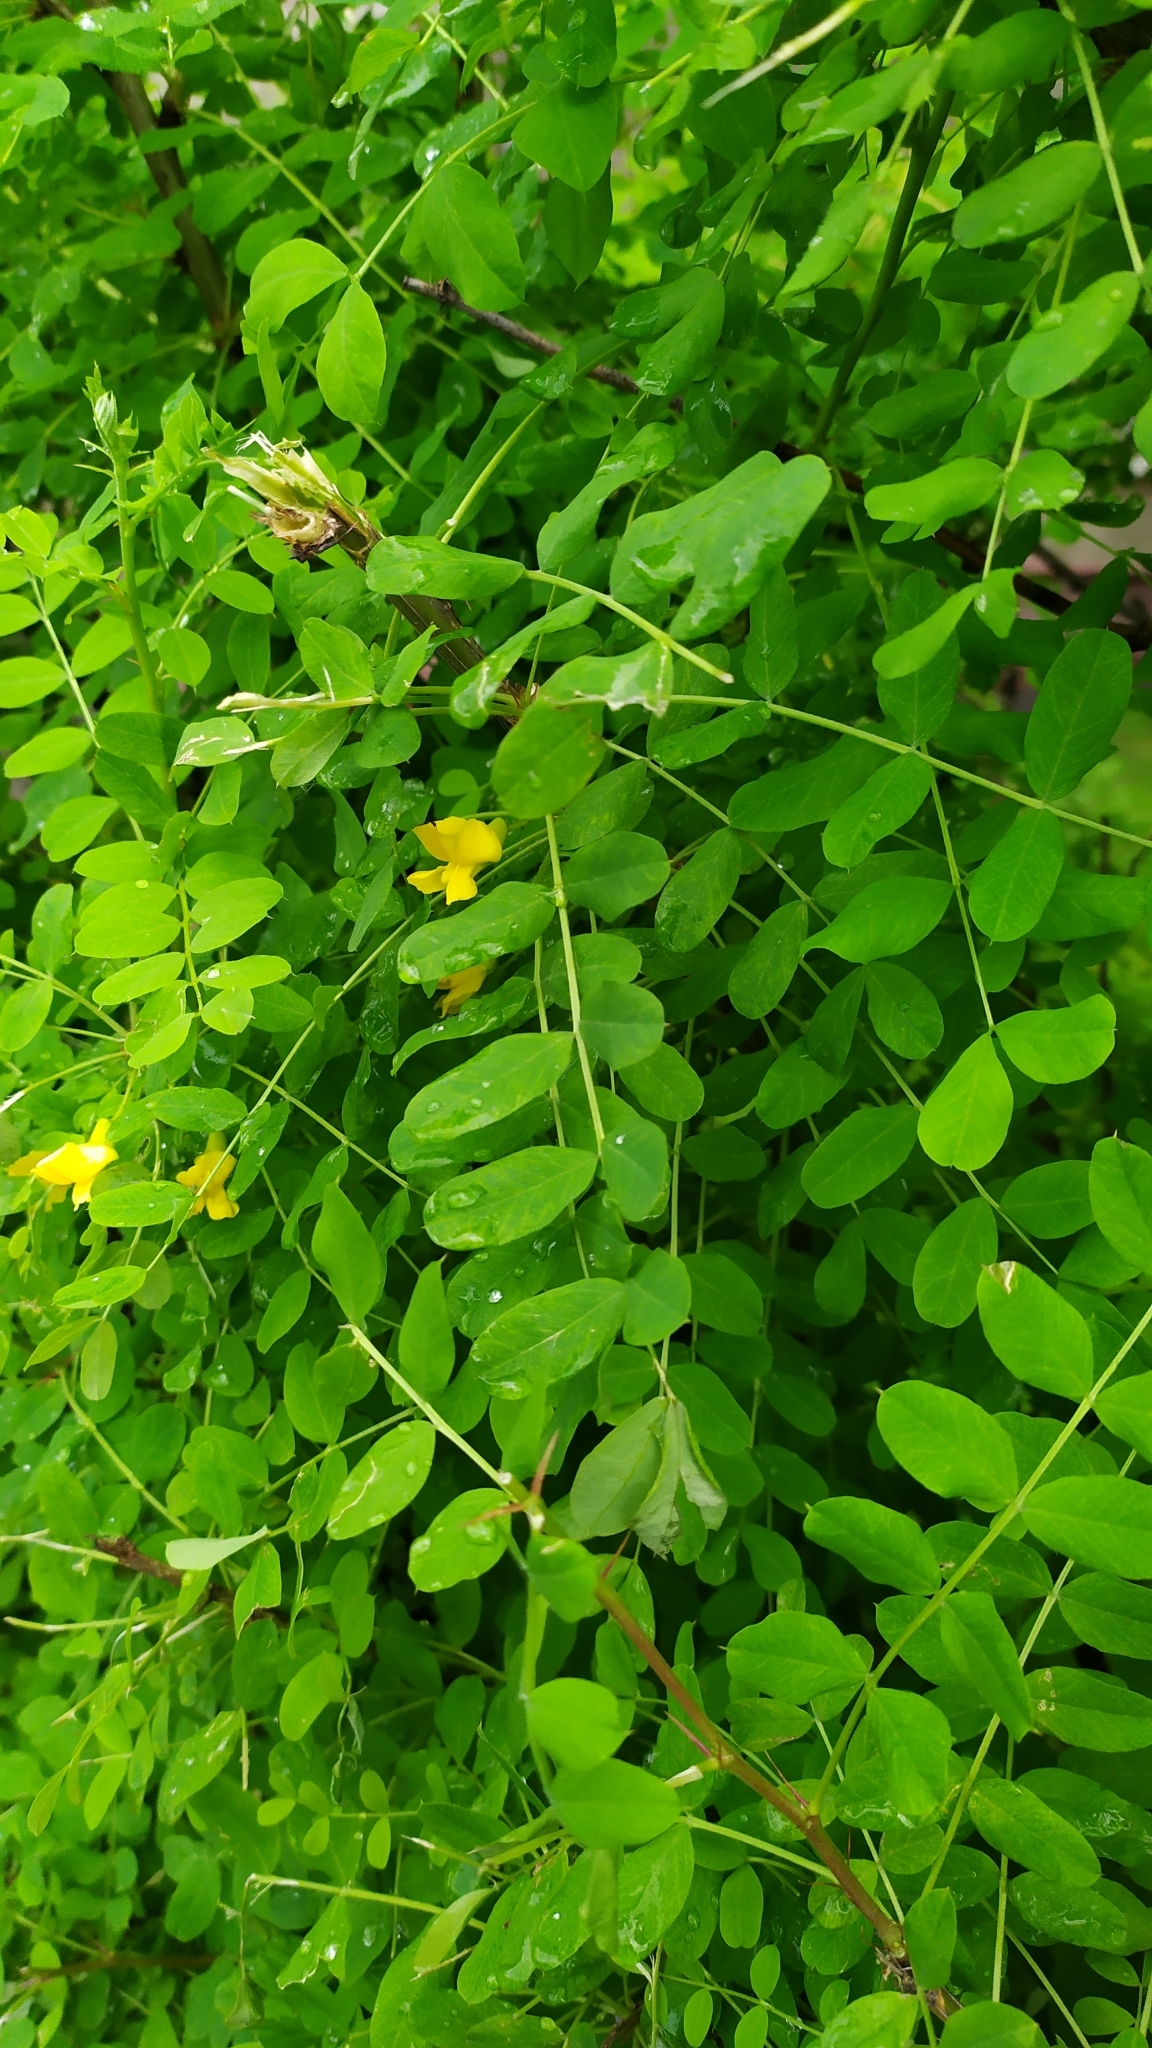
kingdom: Plantae
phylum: Tracheophyta
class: Magnoliopsida
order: Fabales
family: Fabaceae
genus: Caragana
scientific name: Caragana arborescens
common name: Siberian peashrub
